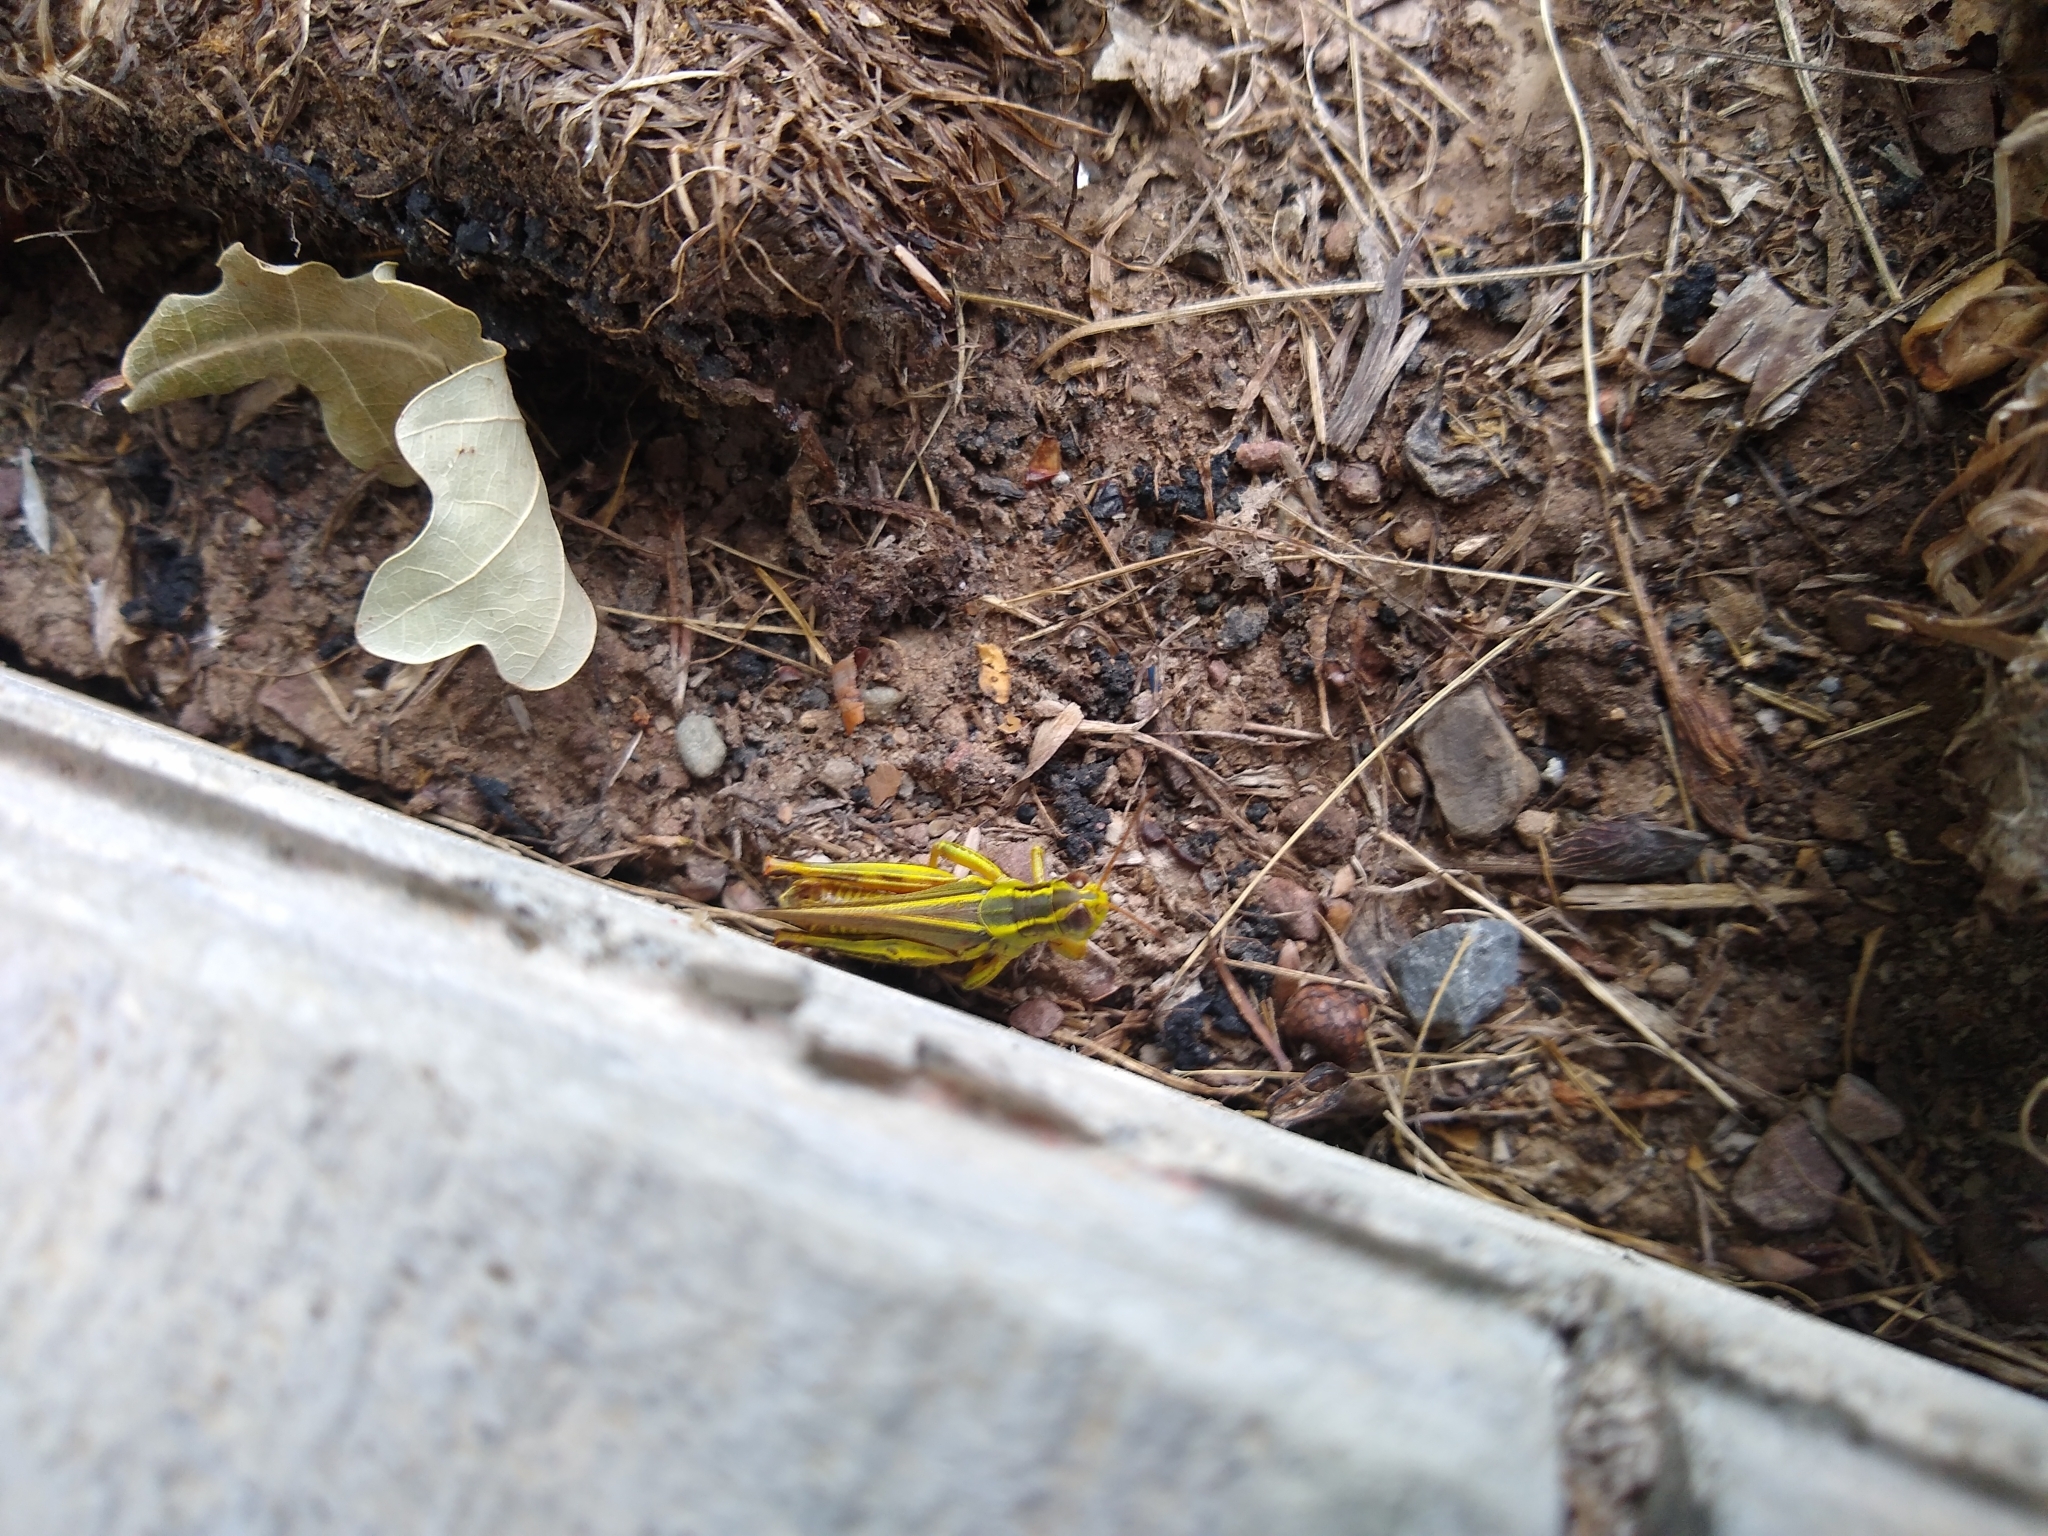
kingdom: Animalia
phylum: Arthropoda
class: Insecta
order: Orthoptera
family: Acrididae
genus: Melanoplus
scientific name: Melanoplus bivittatus
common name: Two-striped grasshopper
